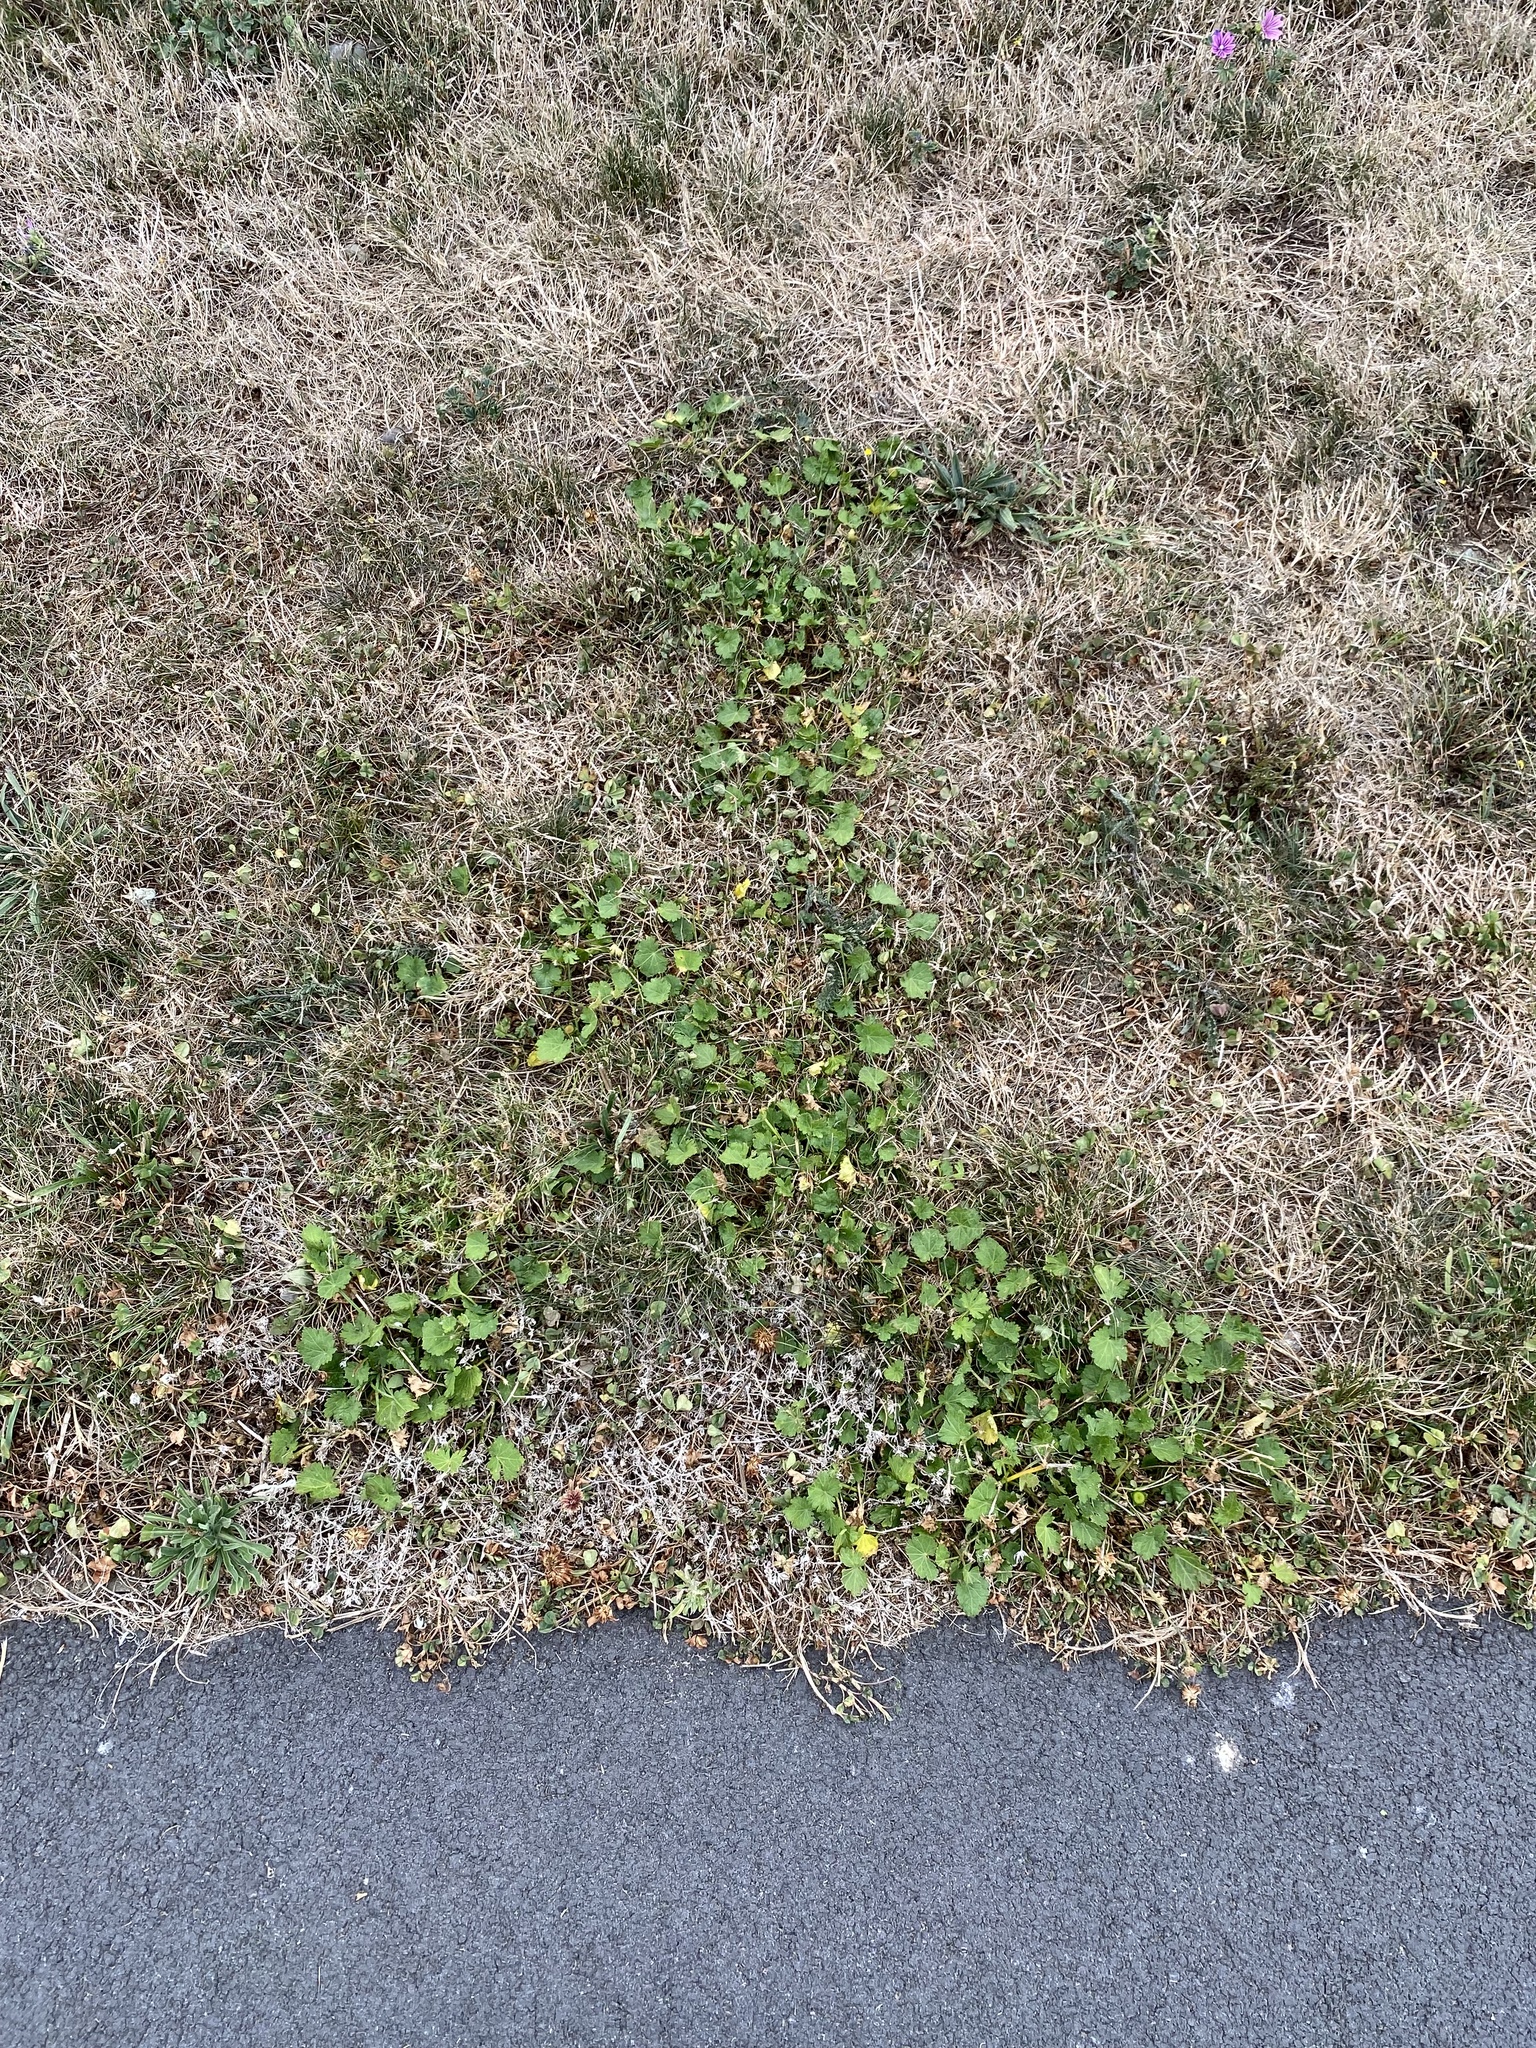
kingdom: Plantae
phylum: Tracheophyta
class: Magnoliopsida
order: Malvales
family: Malvaceae
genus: Modiola
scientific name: Modiola caroliniana
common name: Carolina bristlemallow
